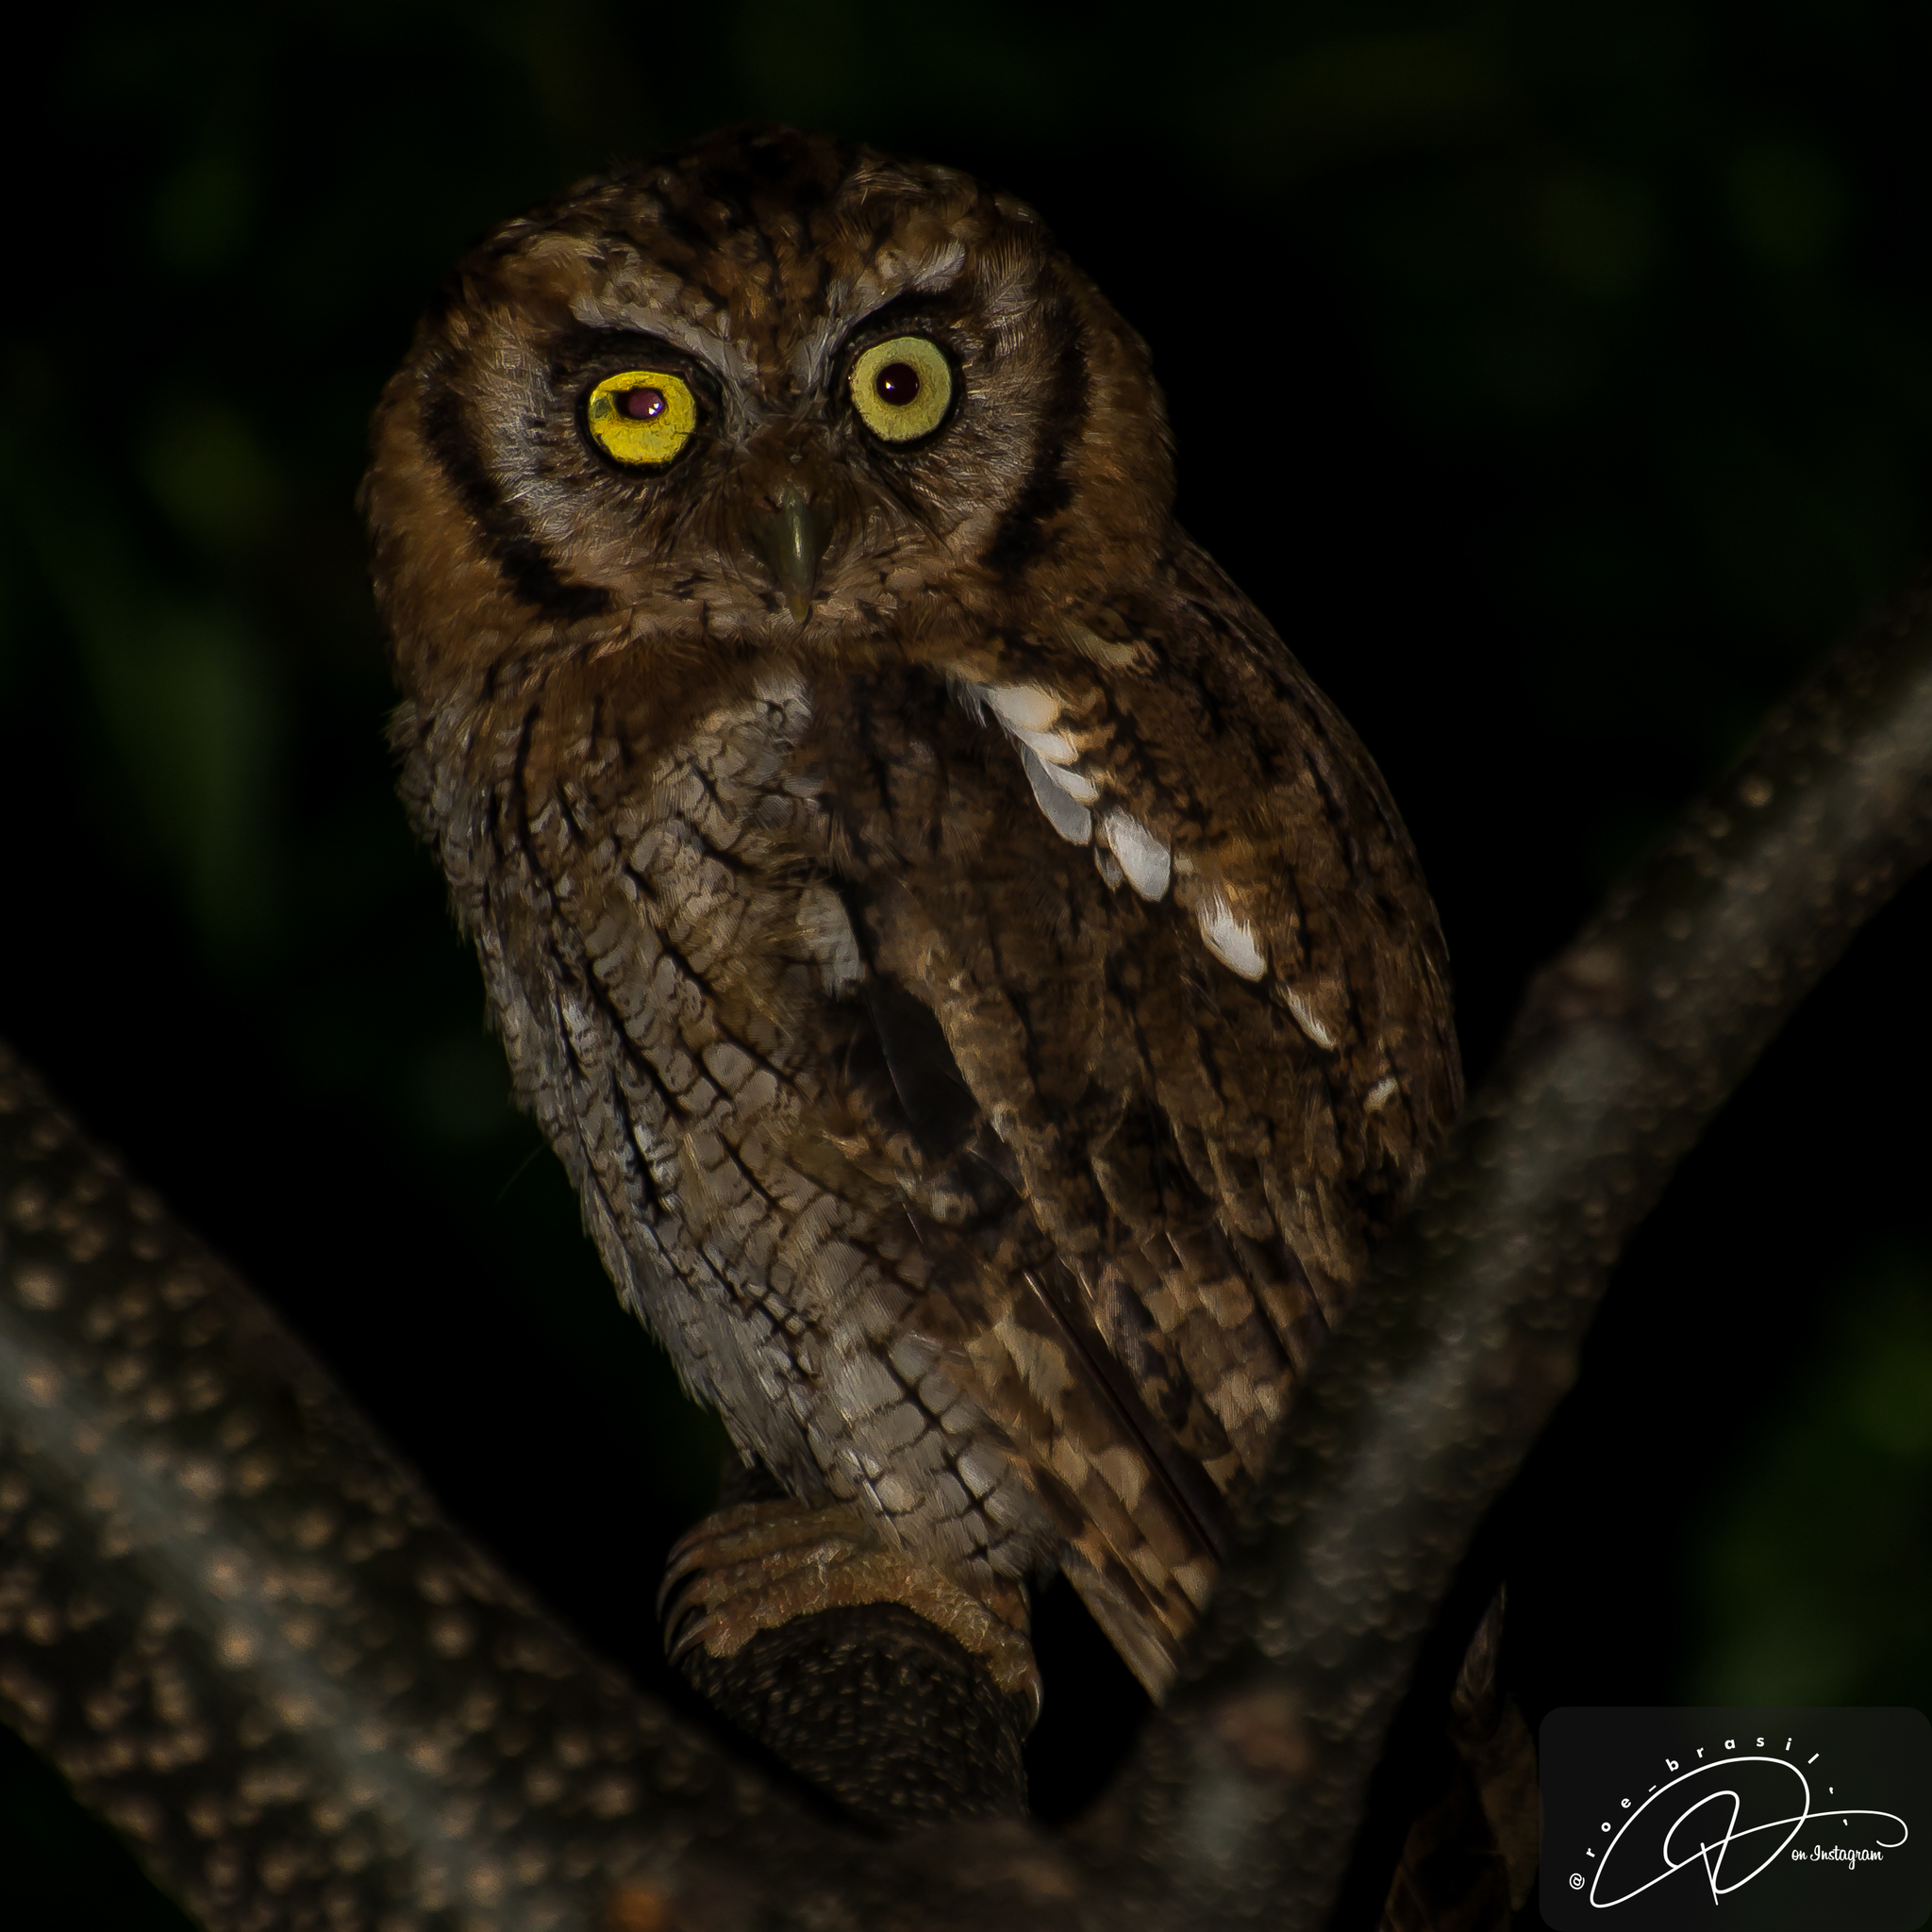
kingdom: Animalia
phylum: Chordata
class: Aves
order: Strigiformes
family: Strigidae
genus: Megascops
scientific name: Megascops choliba
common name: Tropical screech-owl
